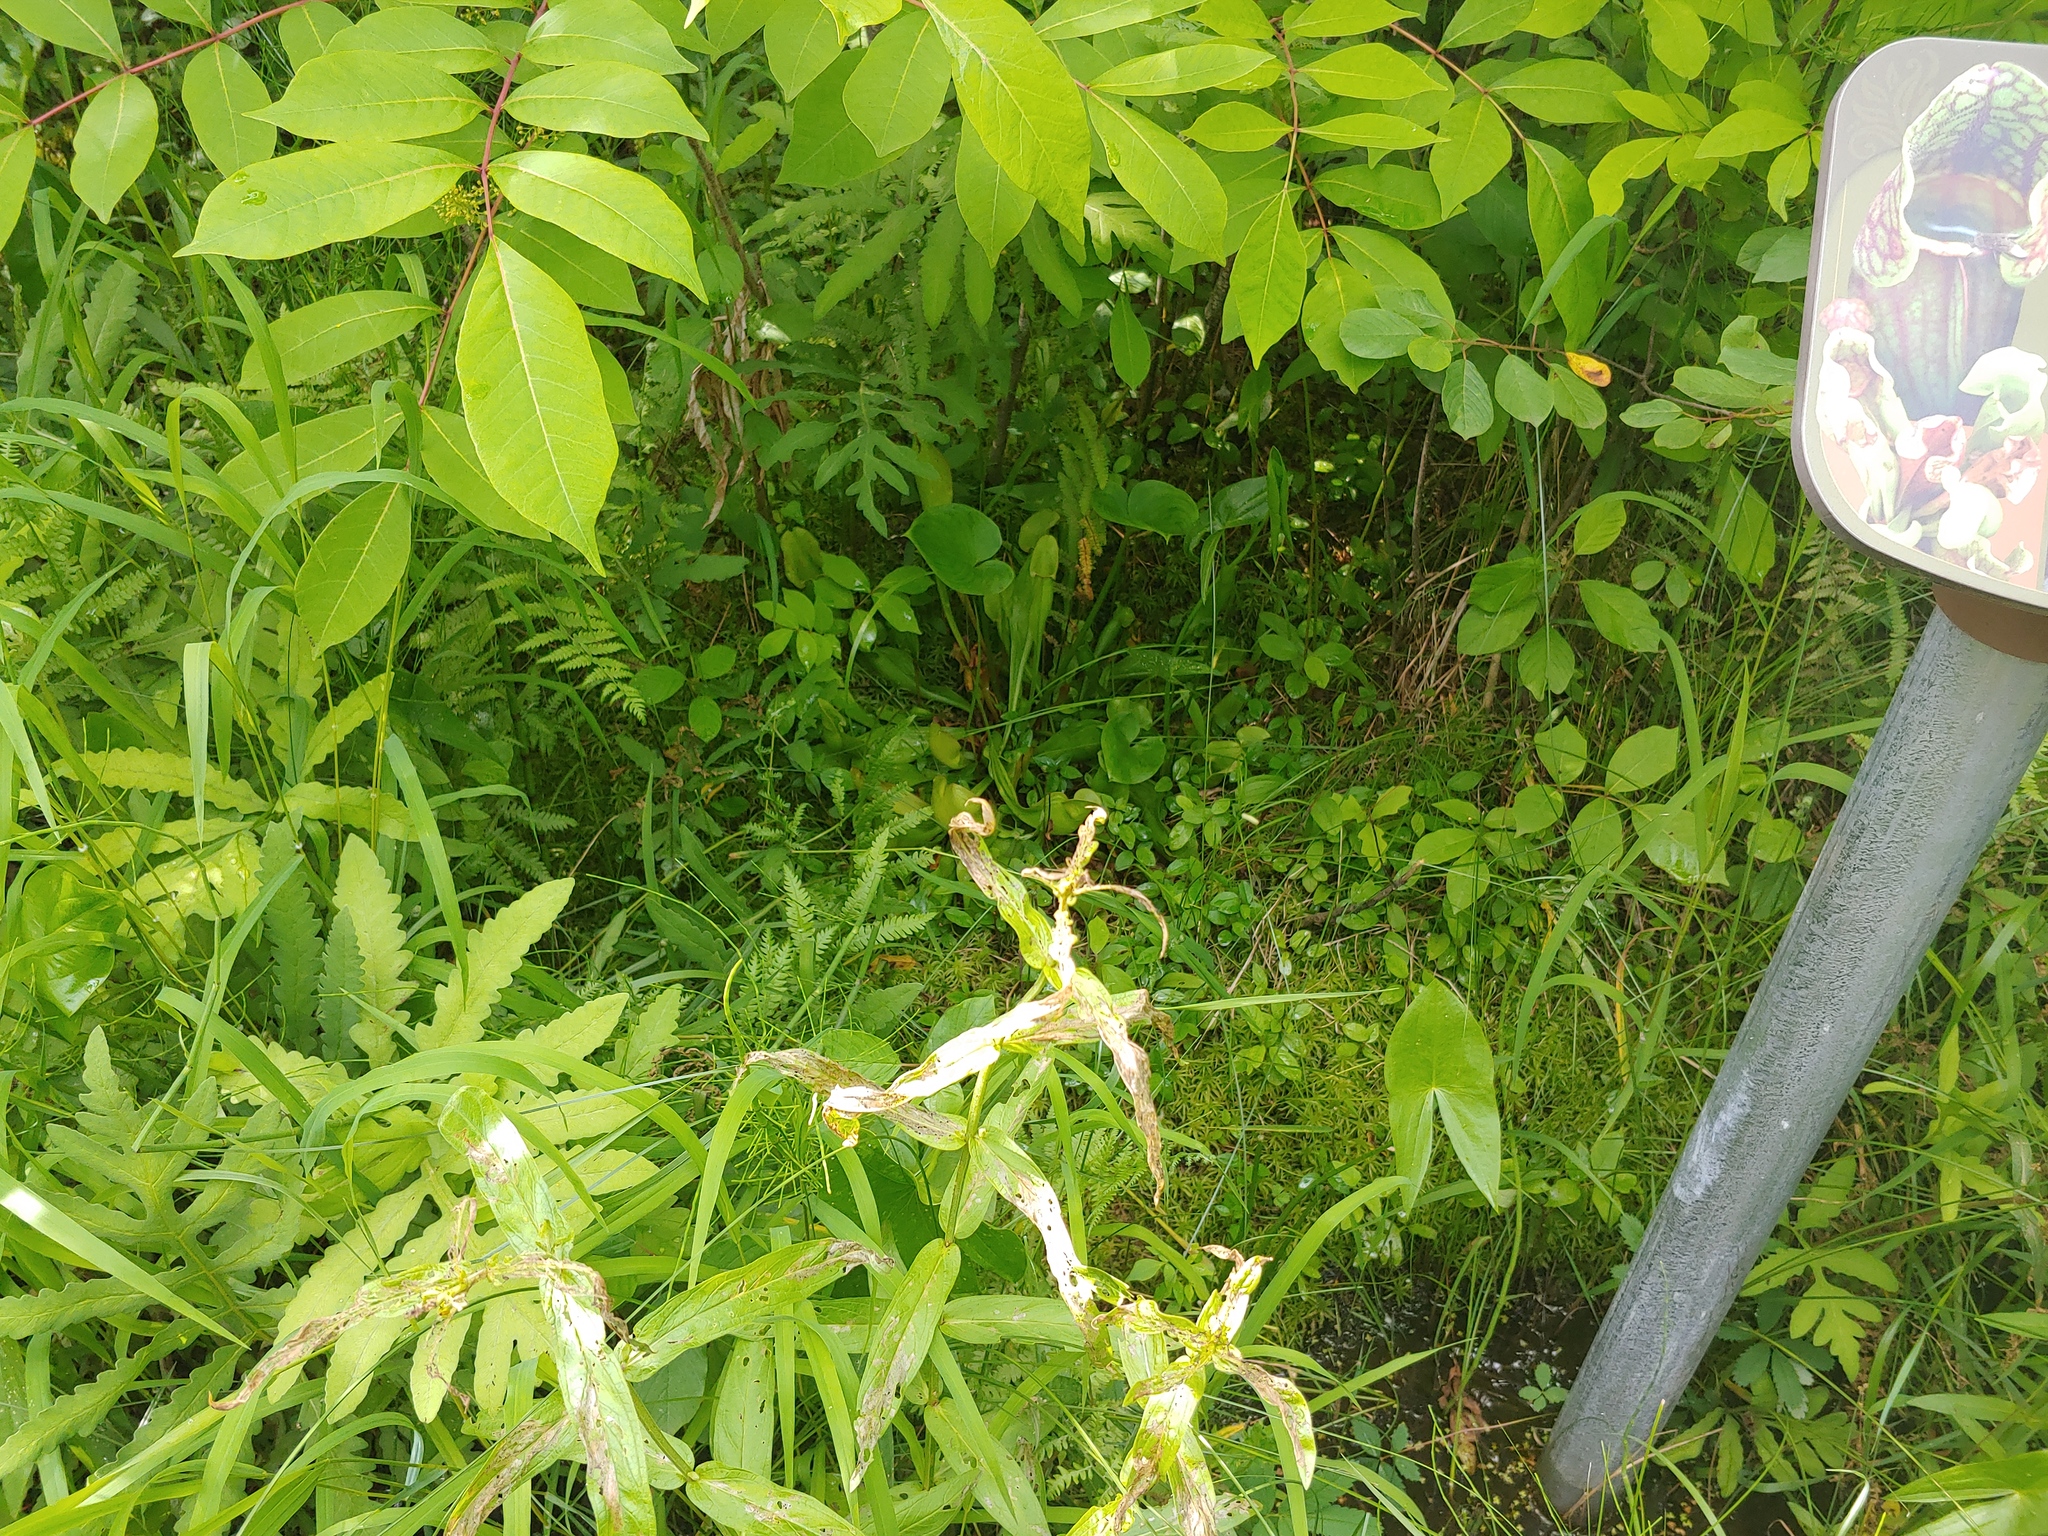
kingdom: Plantae
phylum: Tracheophyta
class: Polypodiopsida
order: Equisetales
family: Equisetaceae
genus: Equisetum
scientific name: Equisetum fluviatile
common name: Water horsetail
